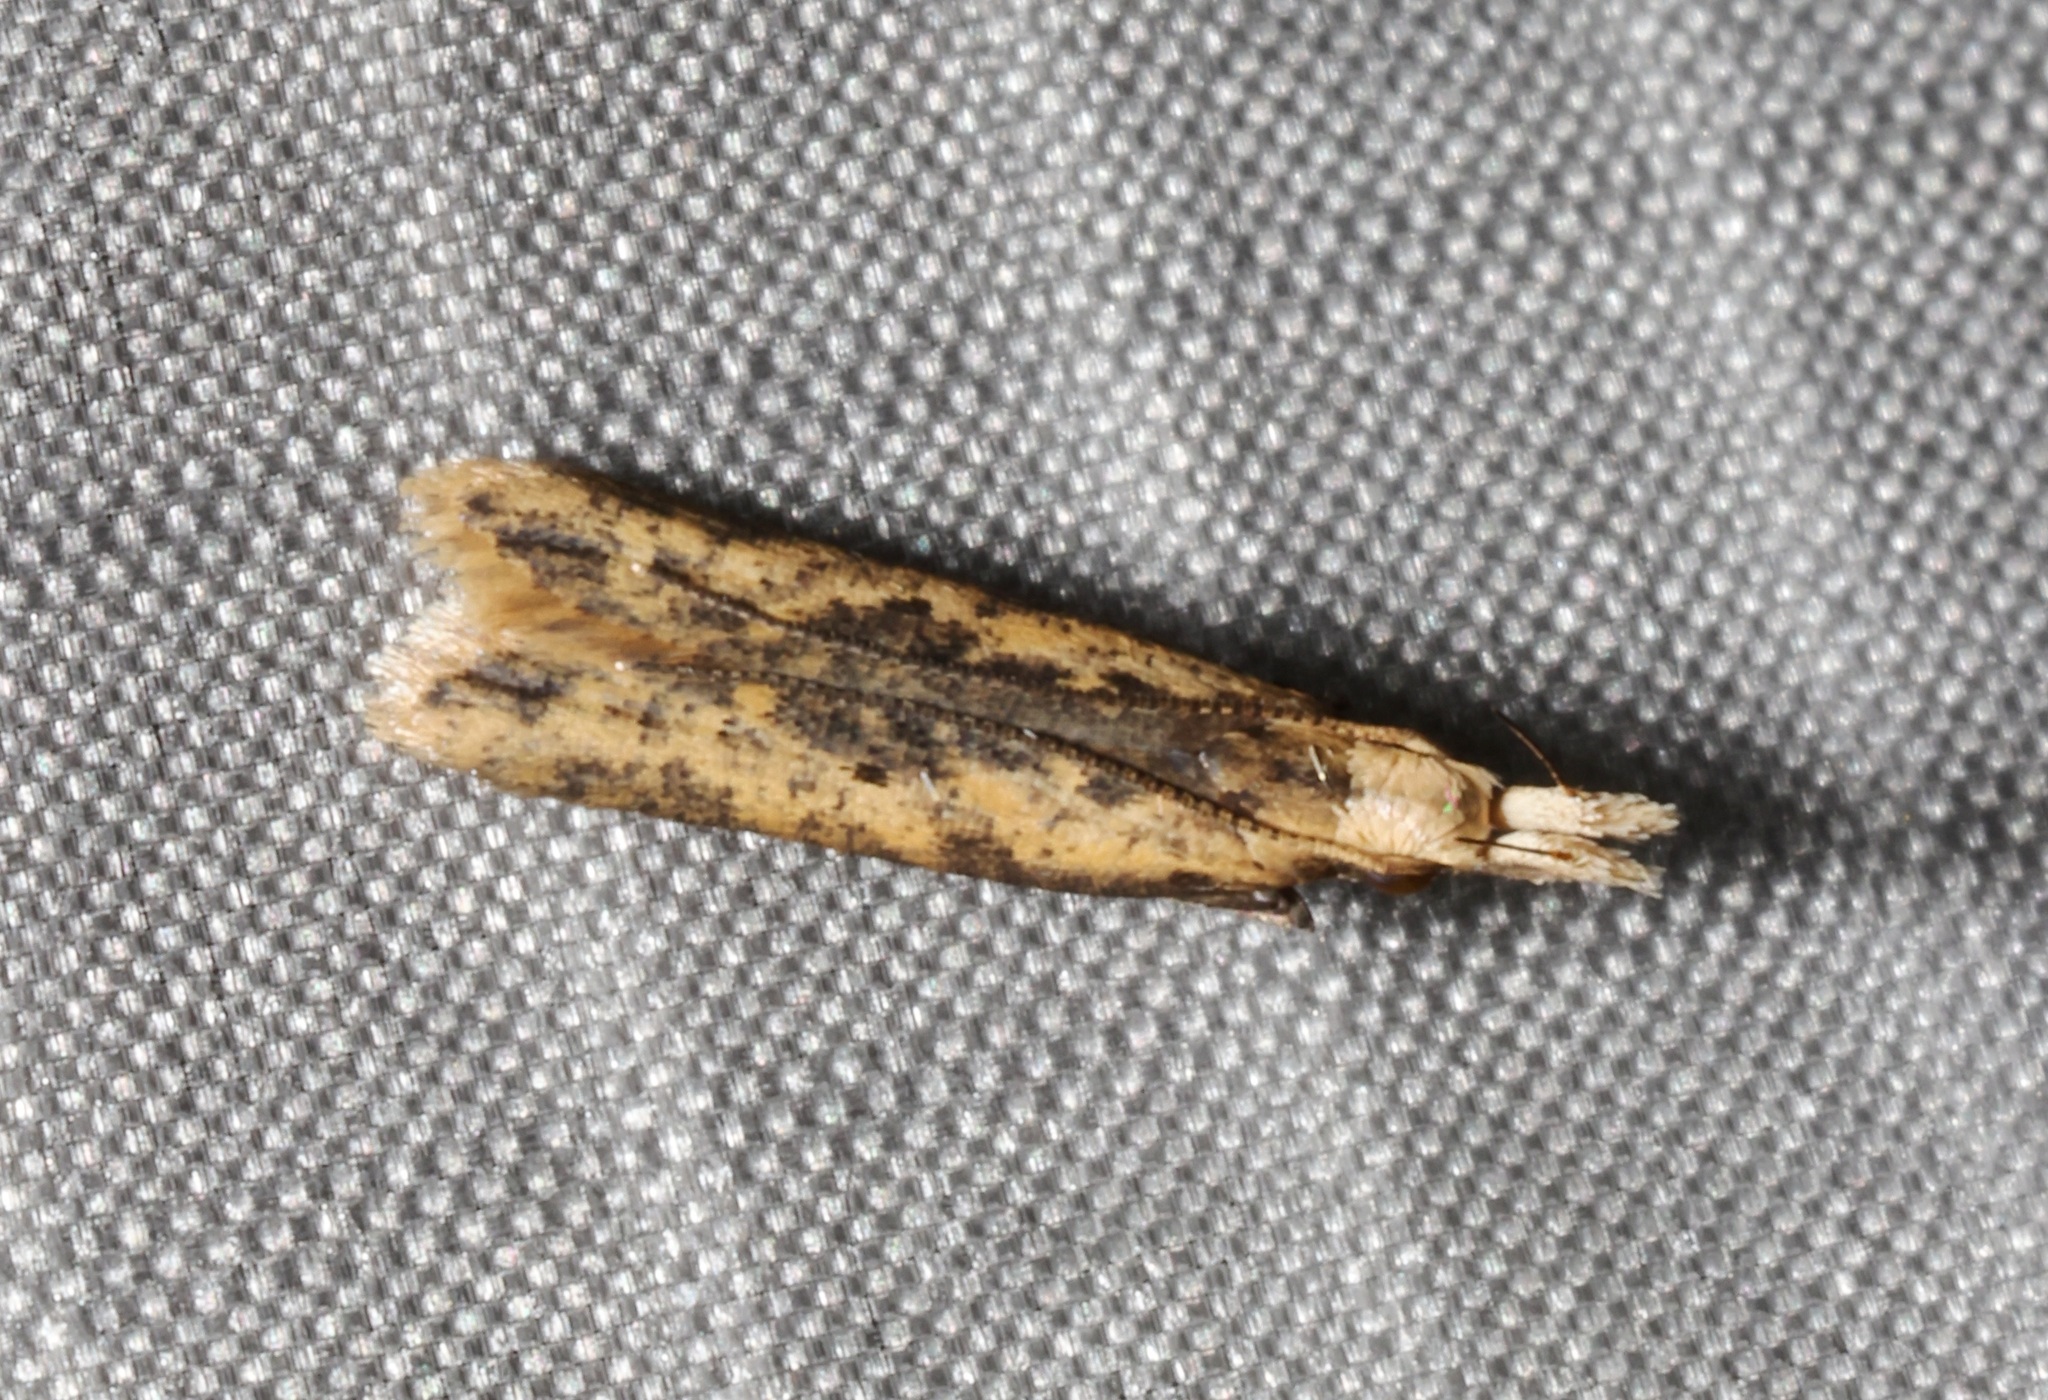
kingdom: Animalia
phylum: Arthropoda
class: Insecta
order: Lepidoptera
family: Gelechiidae
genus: Dichomeris
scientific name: Dichomeris ochthophora
